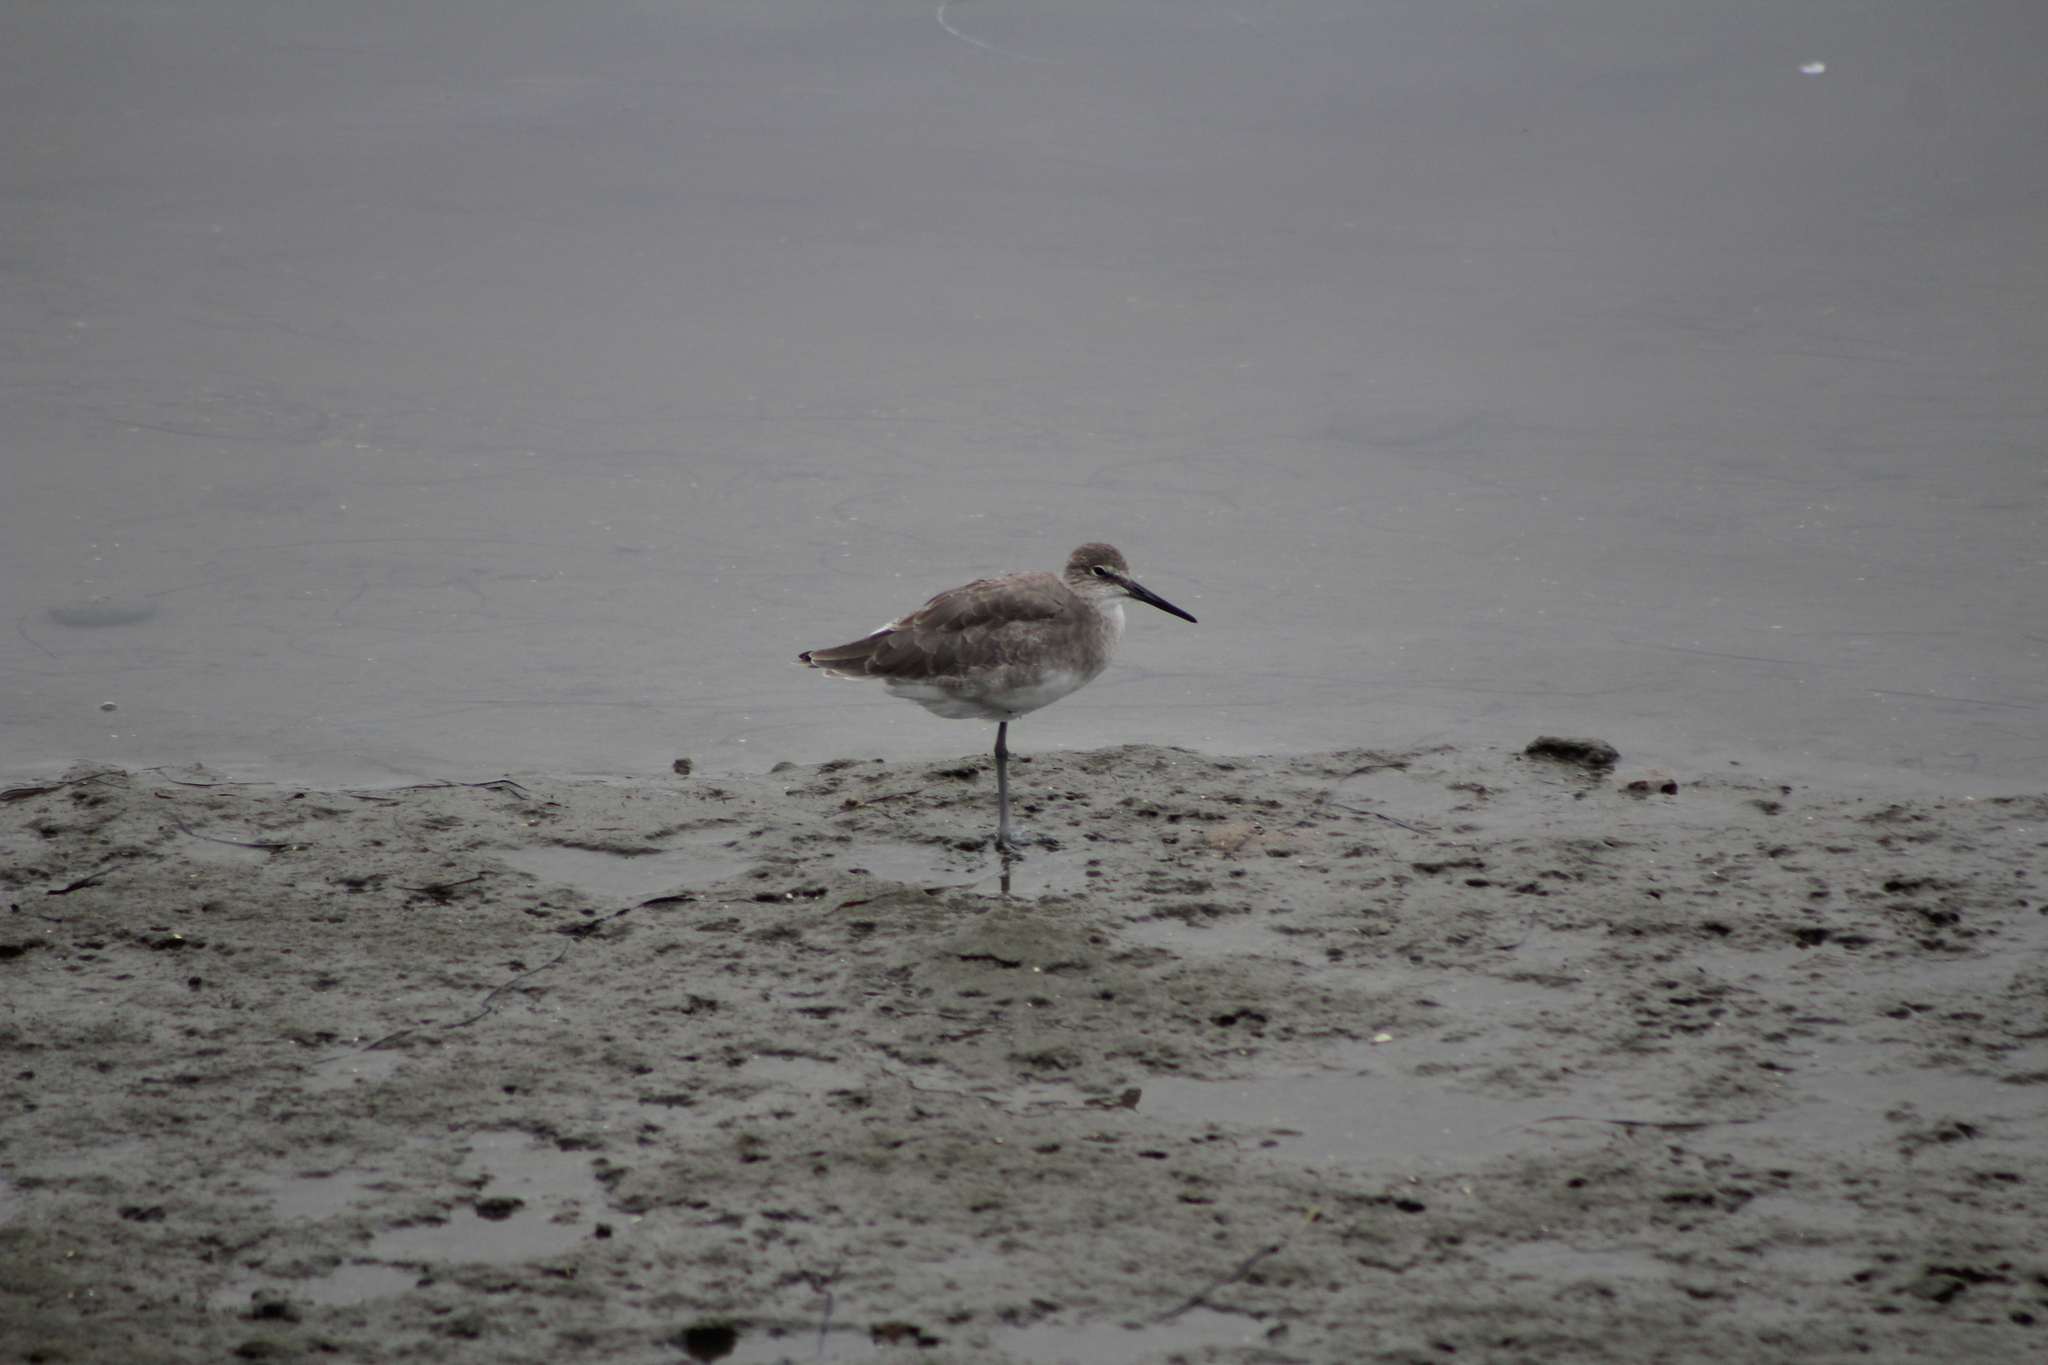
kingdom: Animalia
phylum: Chordata
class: Aves
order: Charadriiformes
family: Scolopacidae
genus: Tringa
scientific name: Tringa semipalmata
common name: Willet
